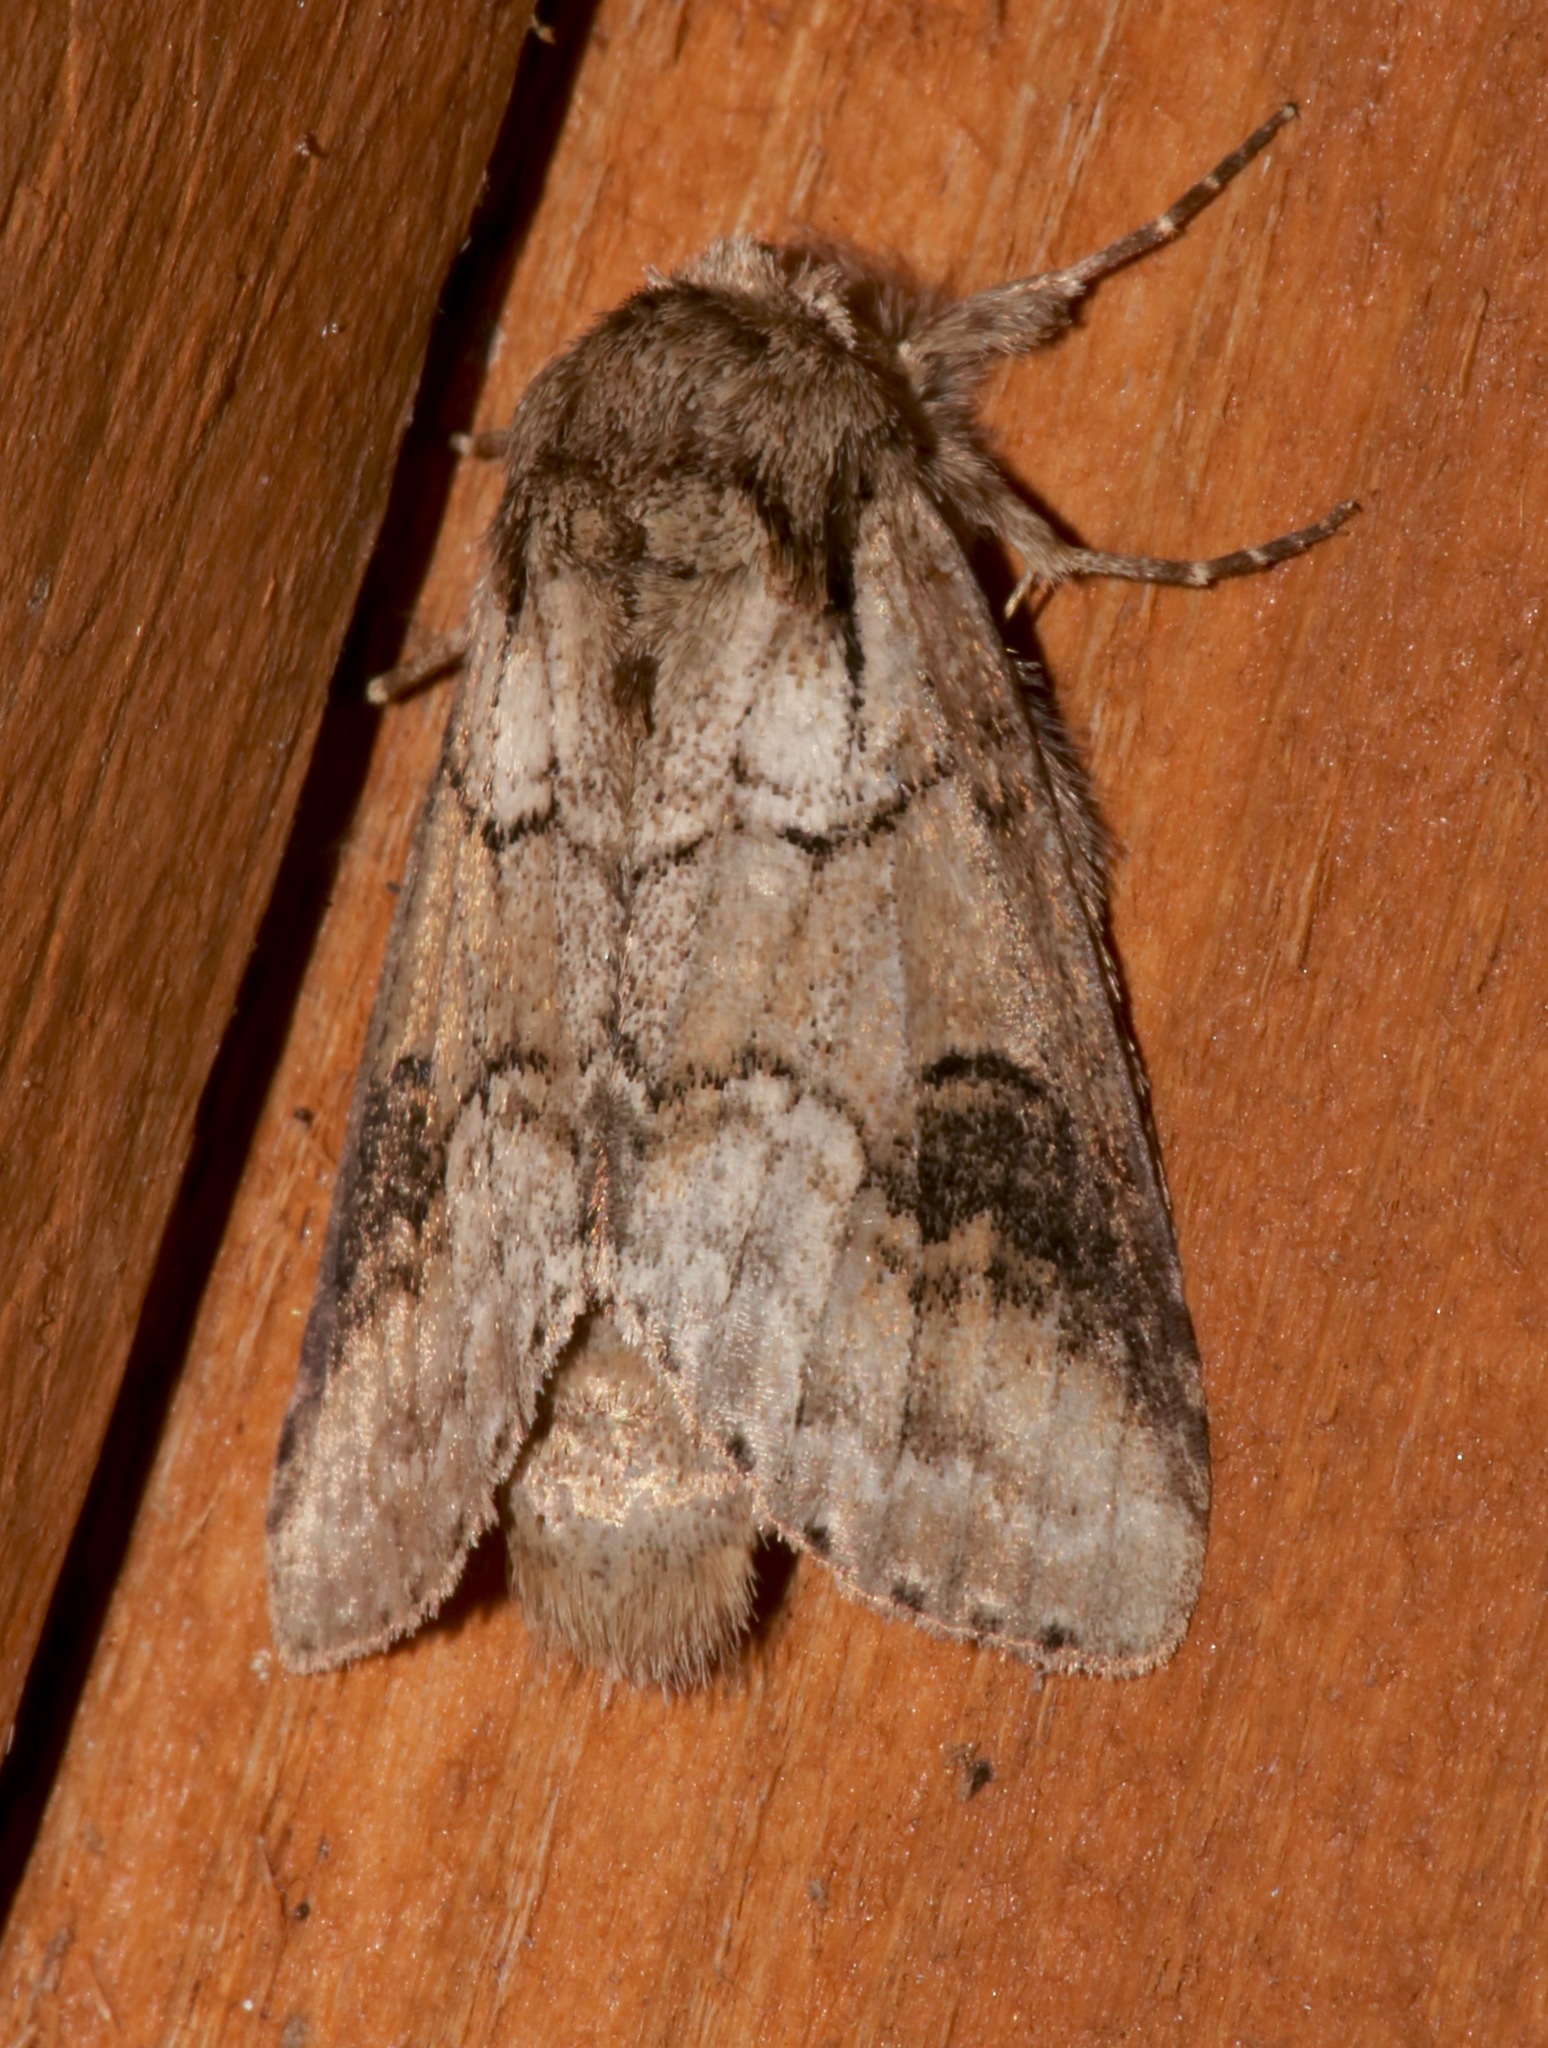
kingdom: Animalia
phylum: Arthropoda
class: Insecta
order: Lepidoptera
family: Notodontidae
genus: Lochmaeus
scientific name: Lochmaeus bilineata
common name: Double-lined prominent
